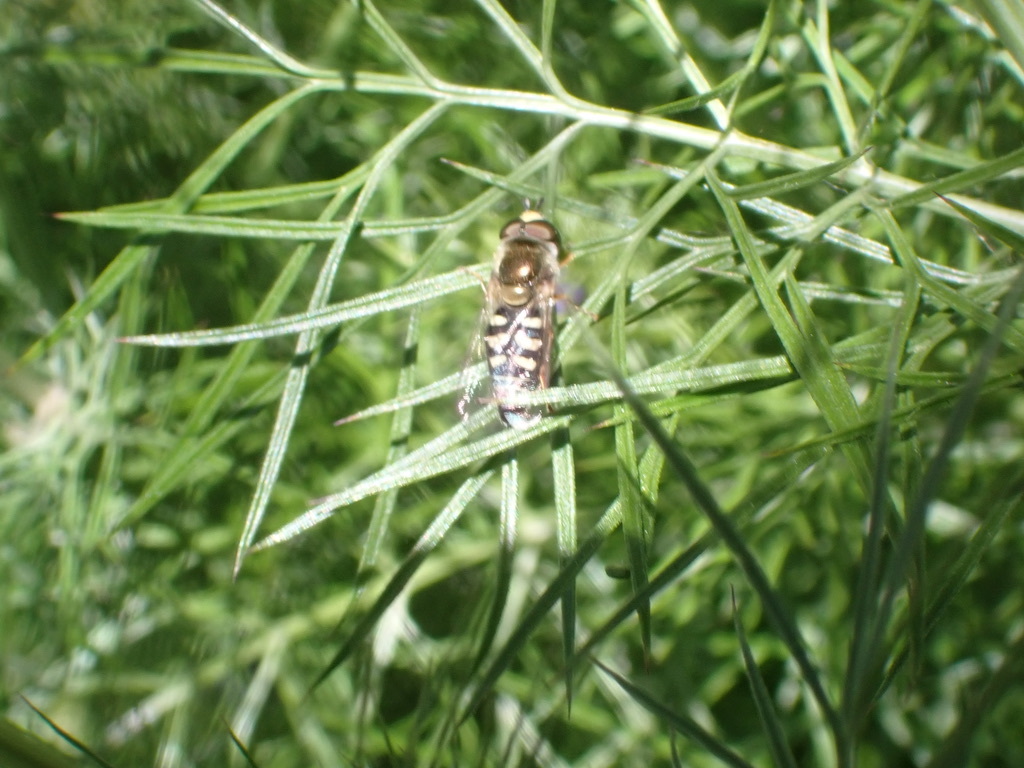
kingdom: Animalia
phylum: Arthropoda
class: Insecta
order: Diptera
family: Syrphidae
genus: Eupeodes
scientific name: Eupeodes volucris
